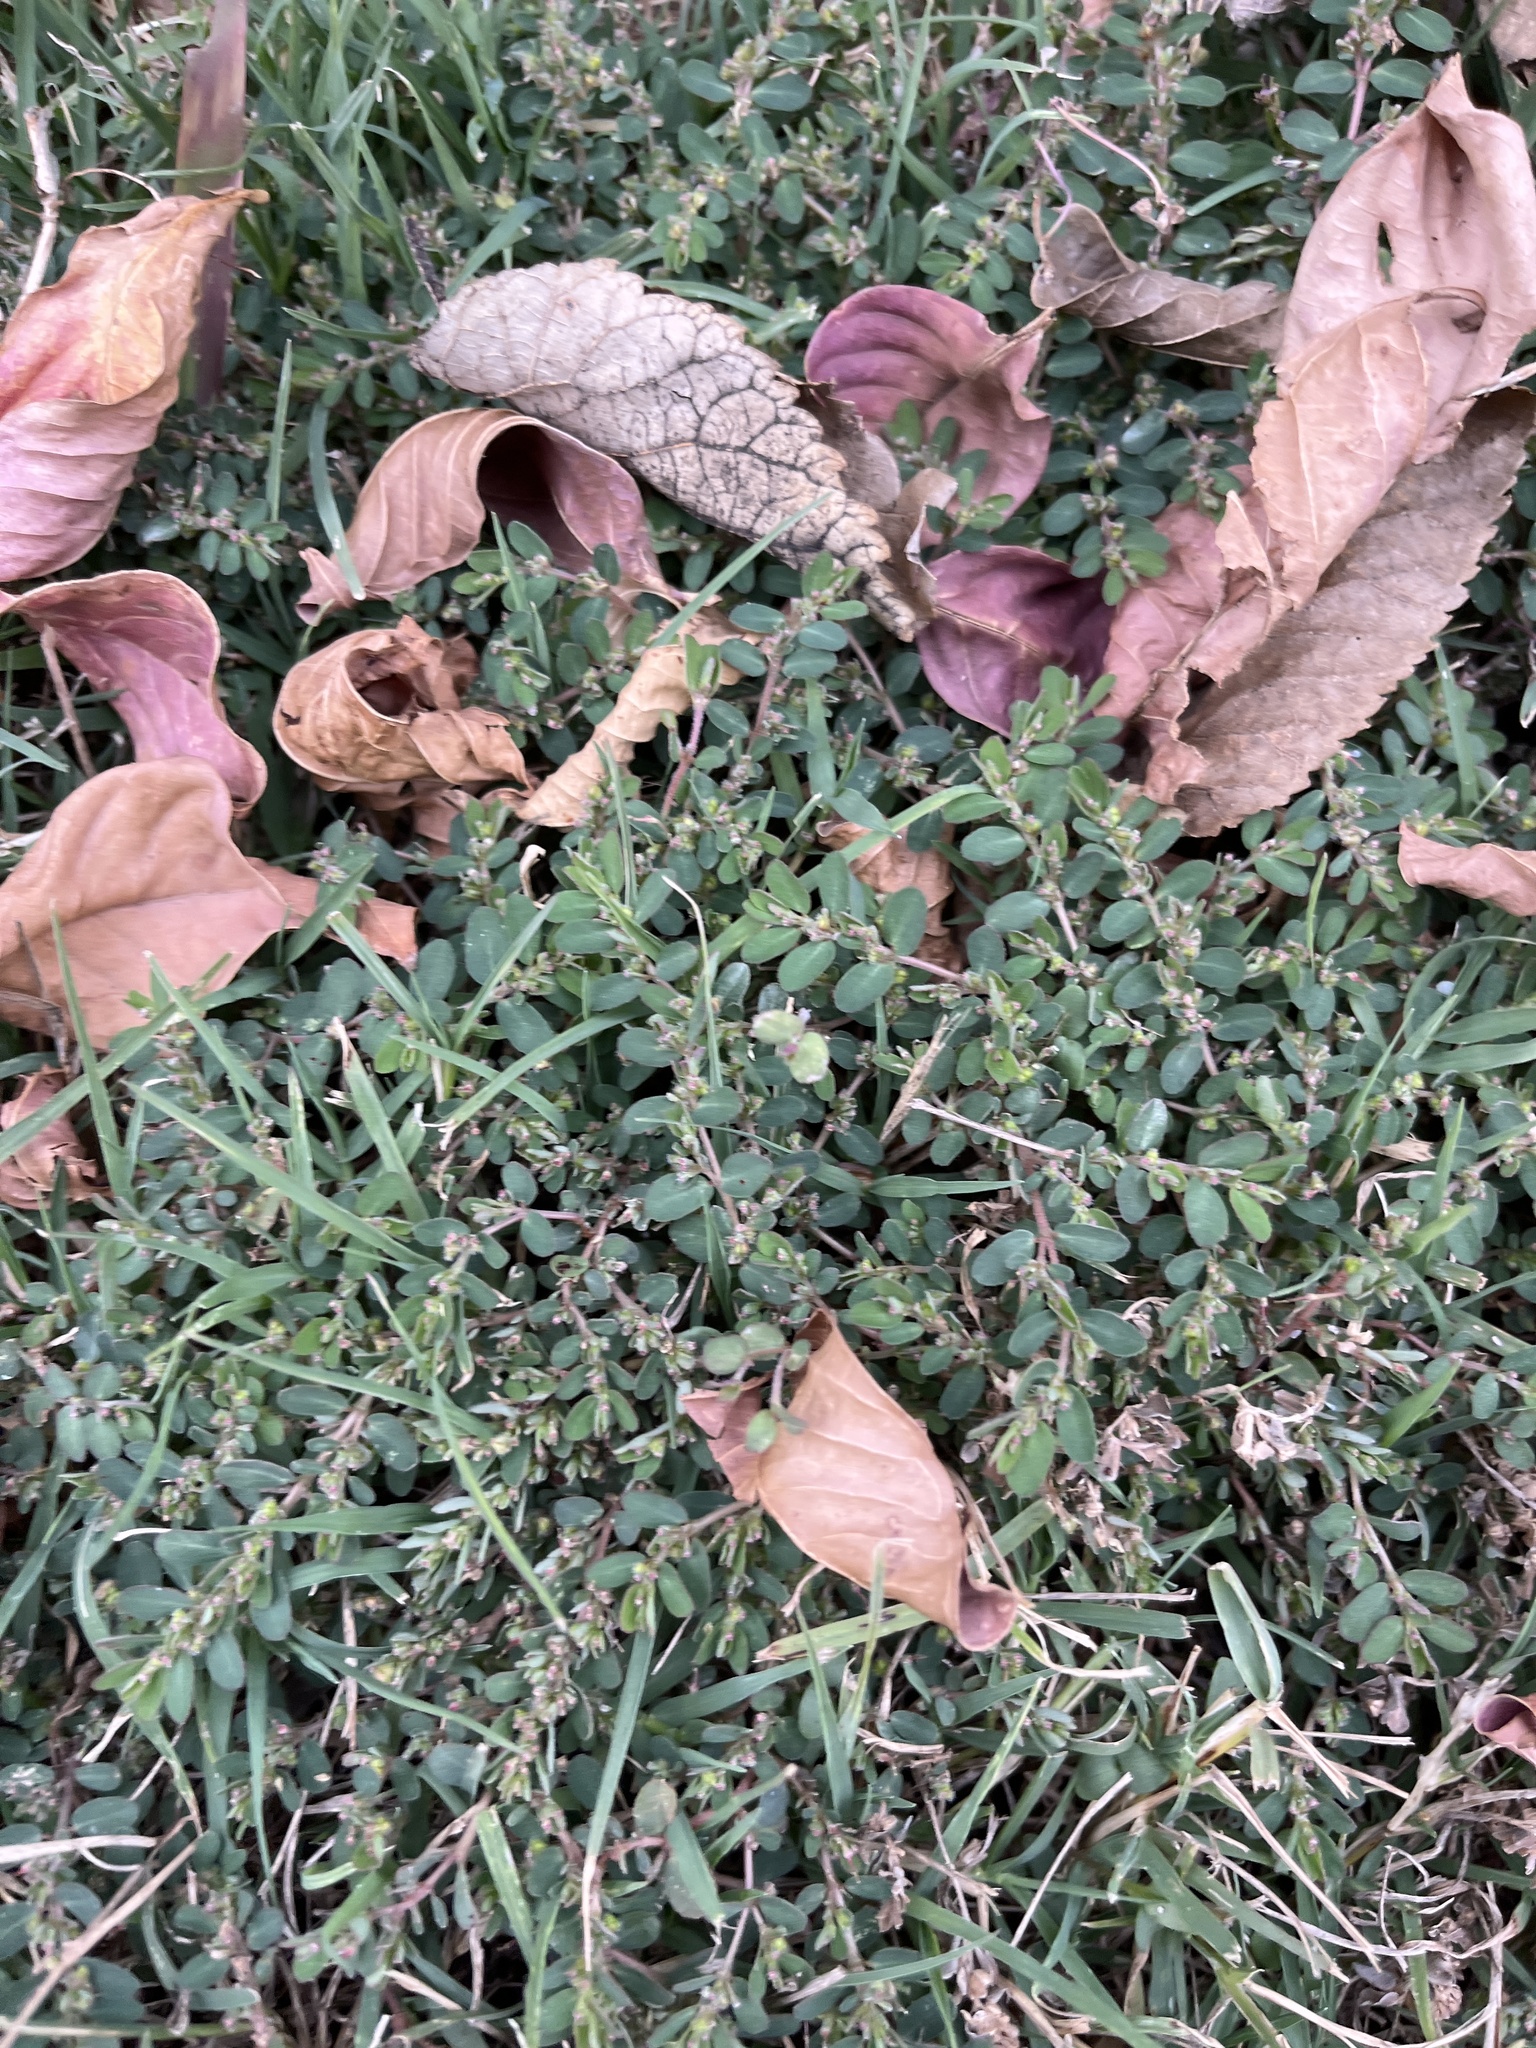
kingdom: Plantae
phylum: Tracheophyta
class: Magnoliopsida
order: Malpighiales
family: Euphorbiaceae
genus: Euphorbia
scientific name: Euphorbia prostrata
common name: Prostrate sandmat
